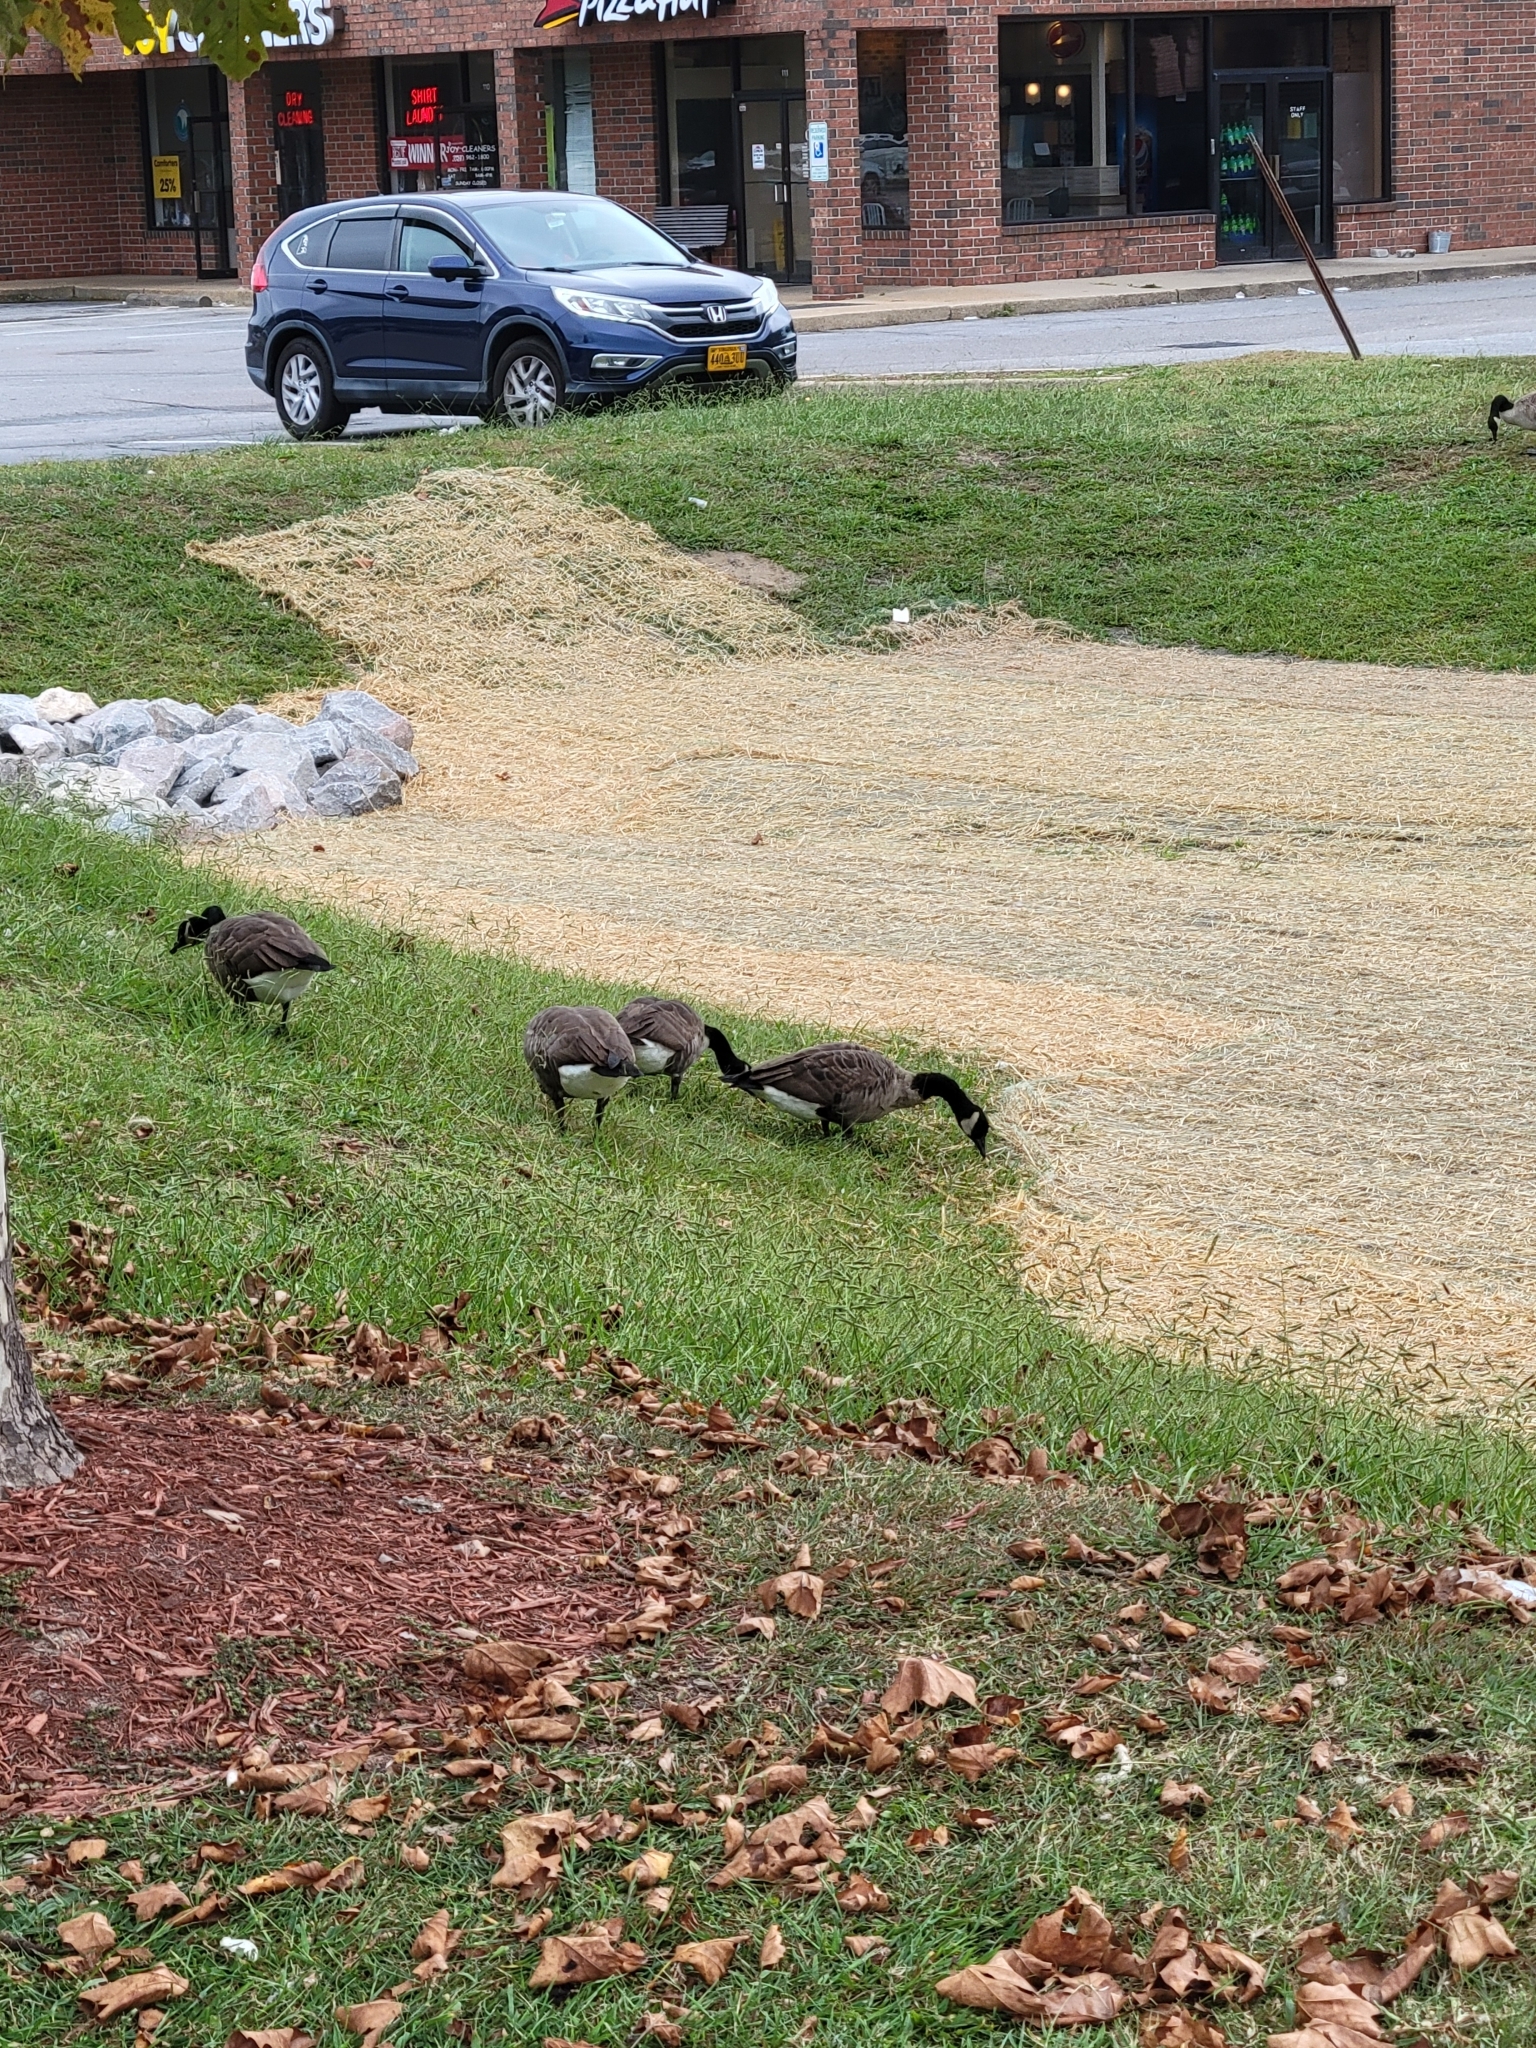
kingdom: Animalia
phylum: Chordata
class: Aves
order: Anseriformes
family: Anatidae
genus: Branta
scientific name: Branta canadensis
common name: Canada goose
